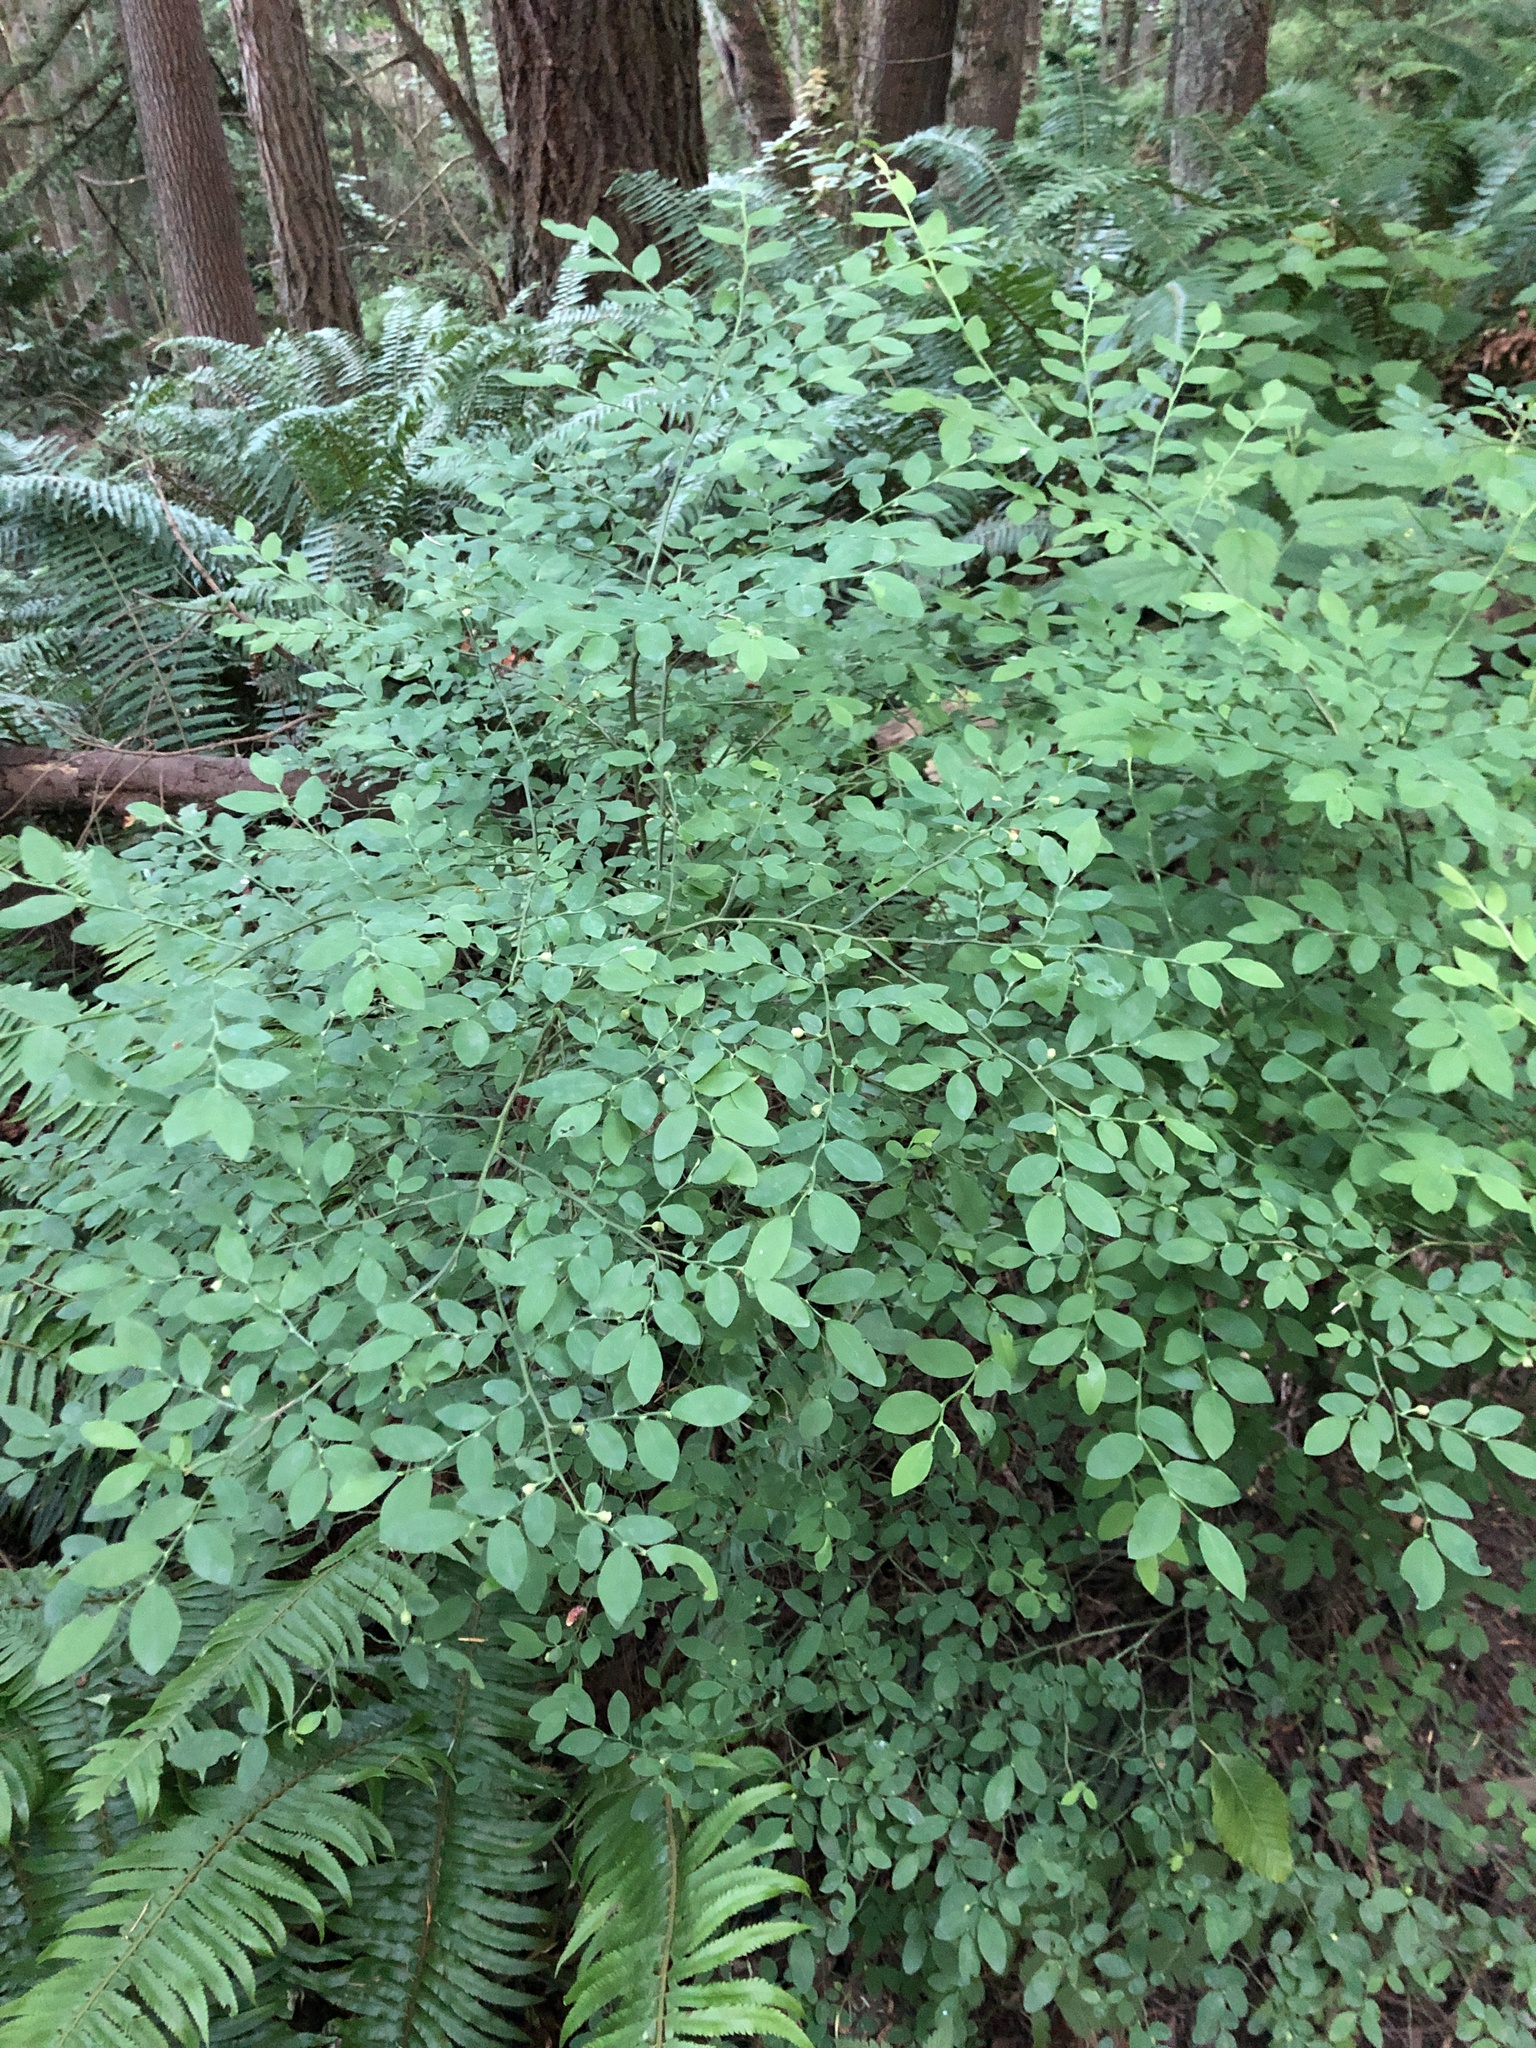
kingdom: Plantae
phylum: Tracheophyta
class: Magnoliopsida
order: Ericales
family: Ericaceae
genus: Vaccinium
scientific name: Vaccinium parvifolium
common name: Red-huckleberry
